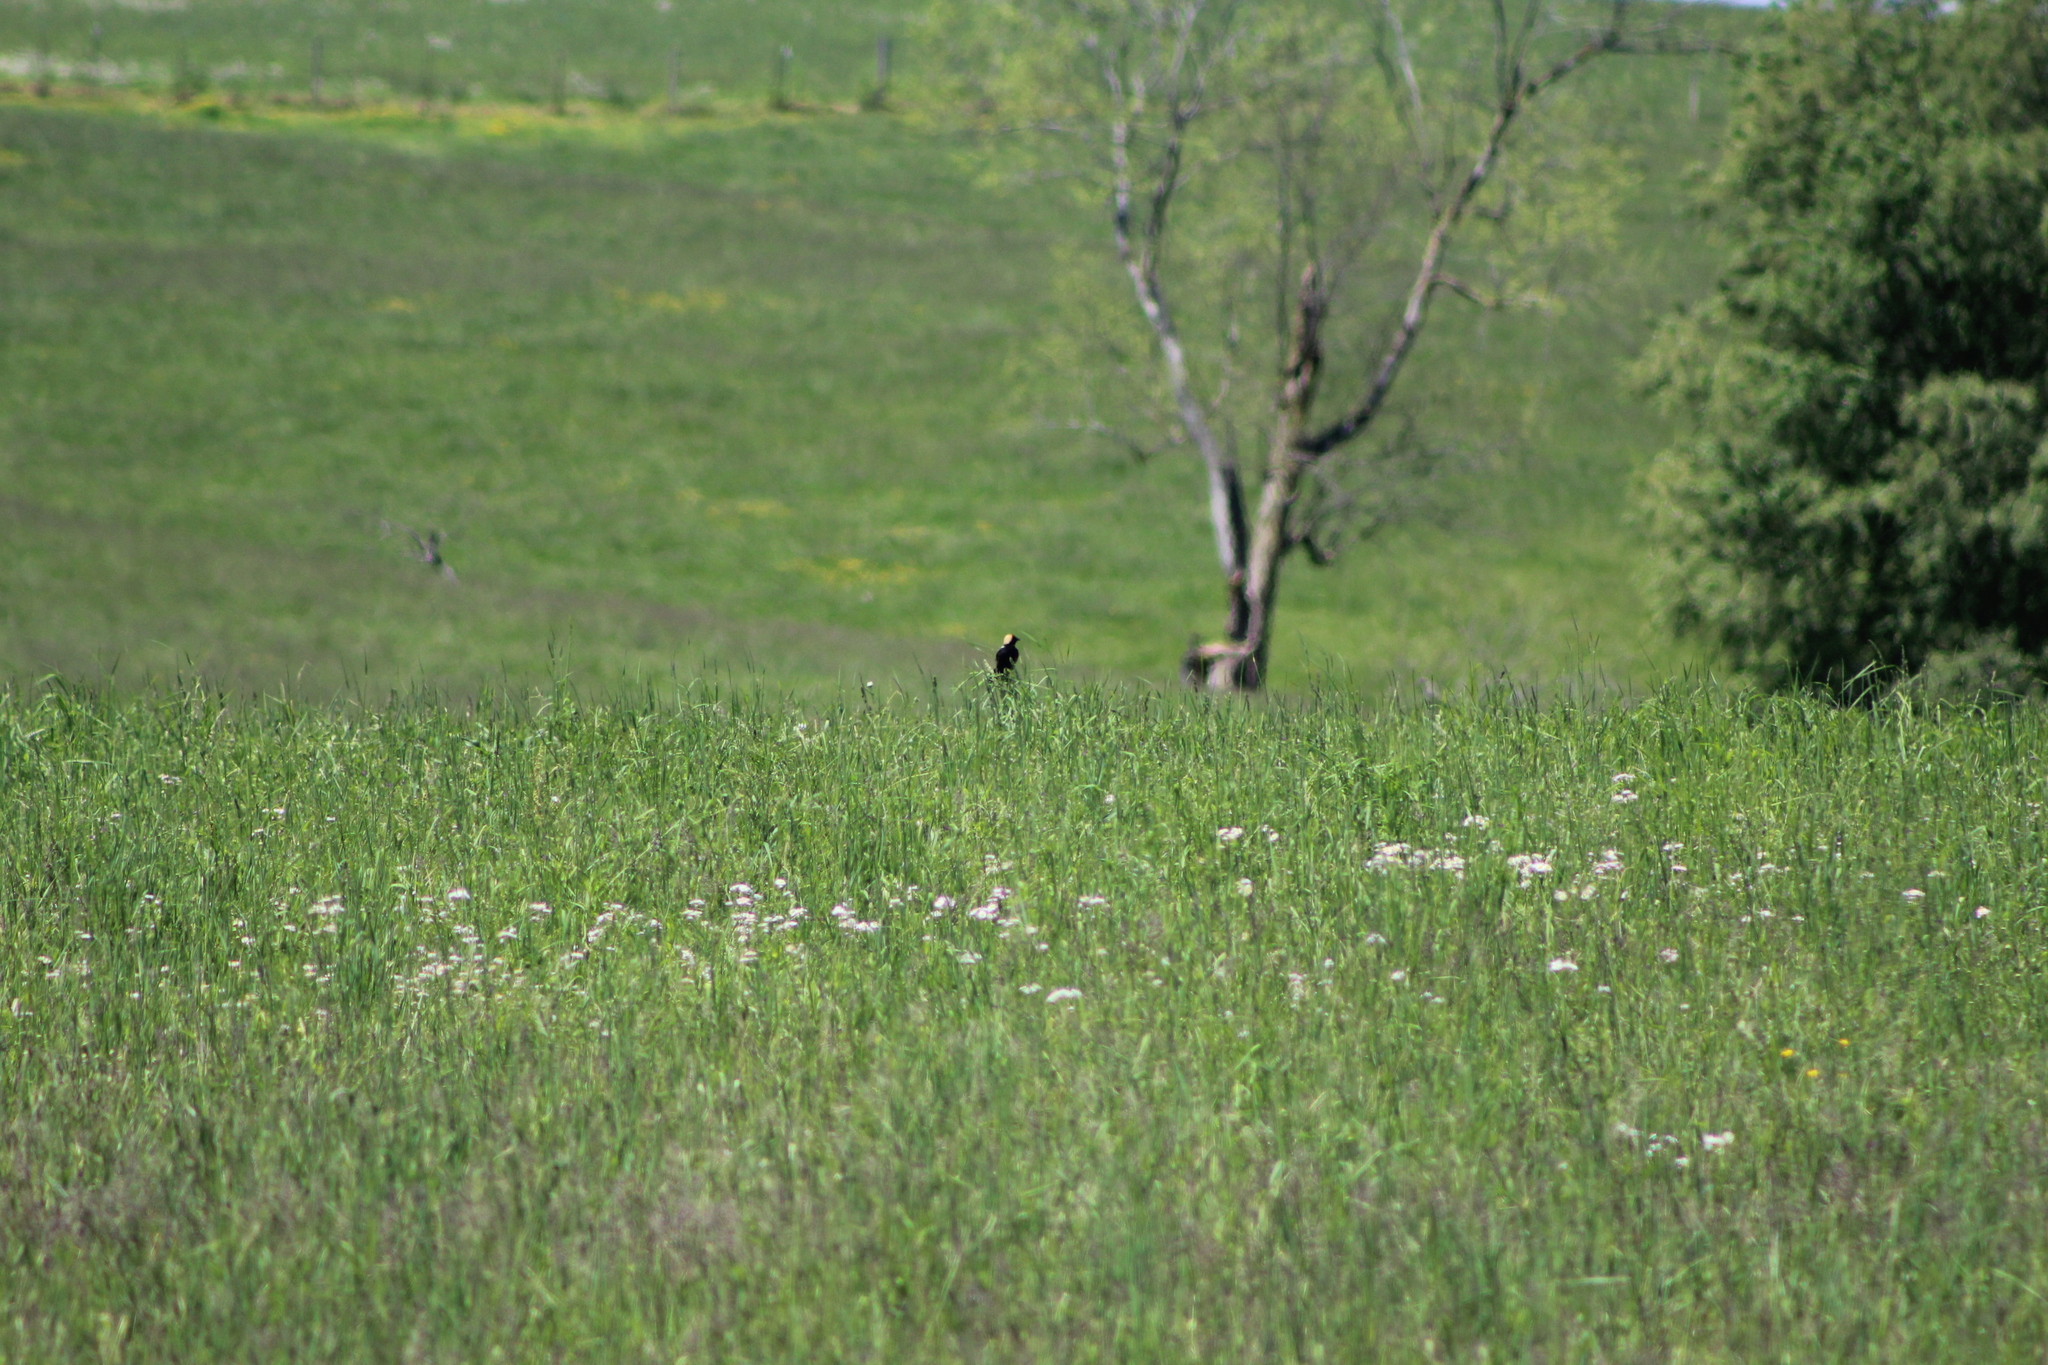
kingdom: Animalia
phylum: Chordata
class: Aves
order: Passeriformes
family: Icteridae
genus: Dolichonyx
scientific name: Dolichonyx oryzivorus
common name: Bobolink
